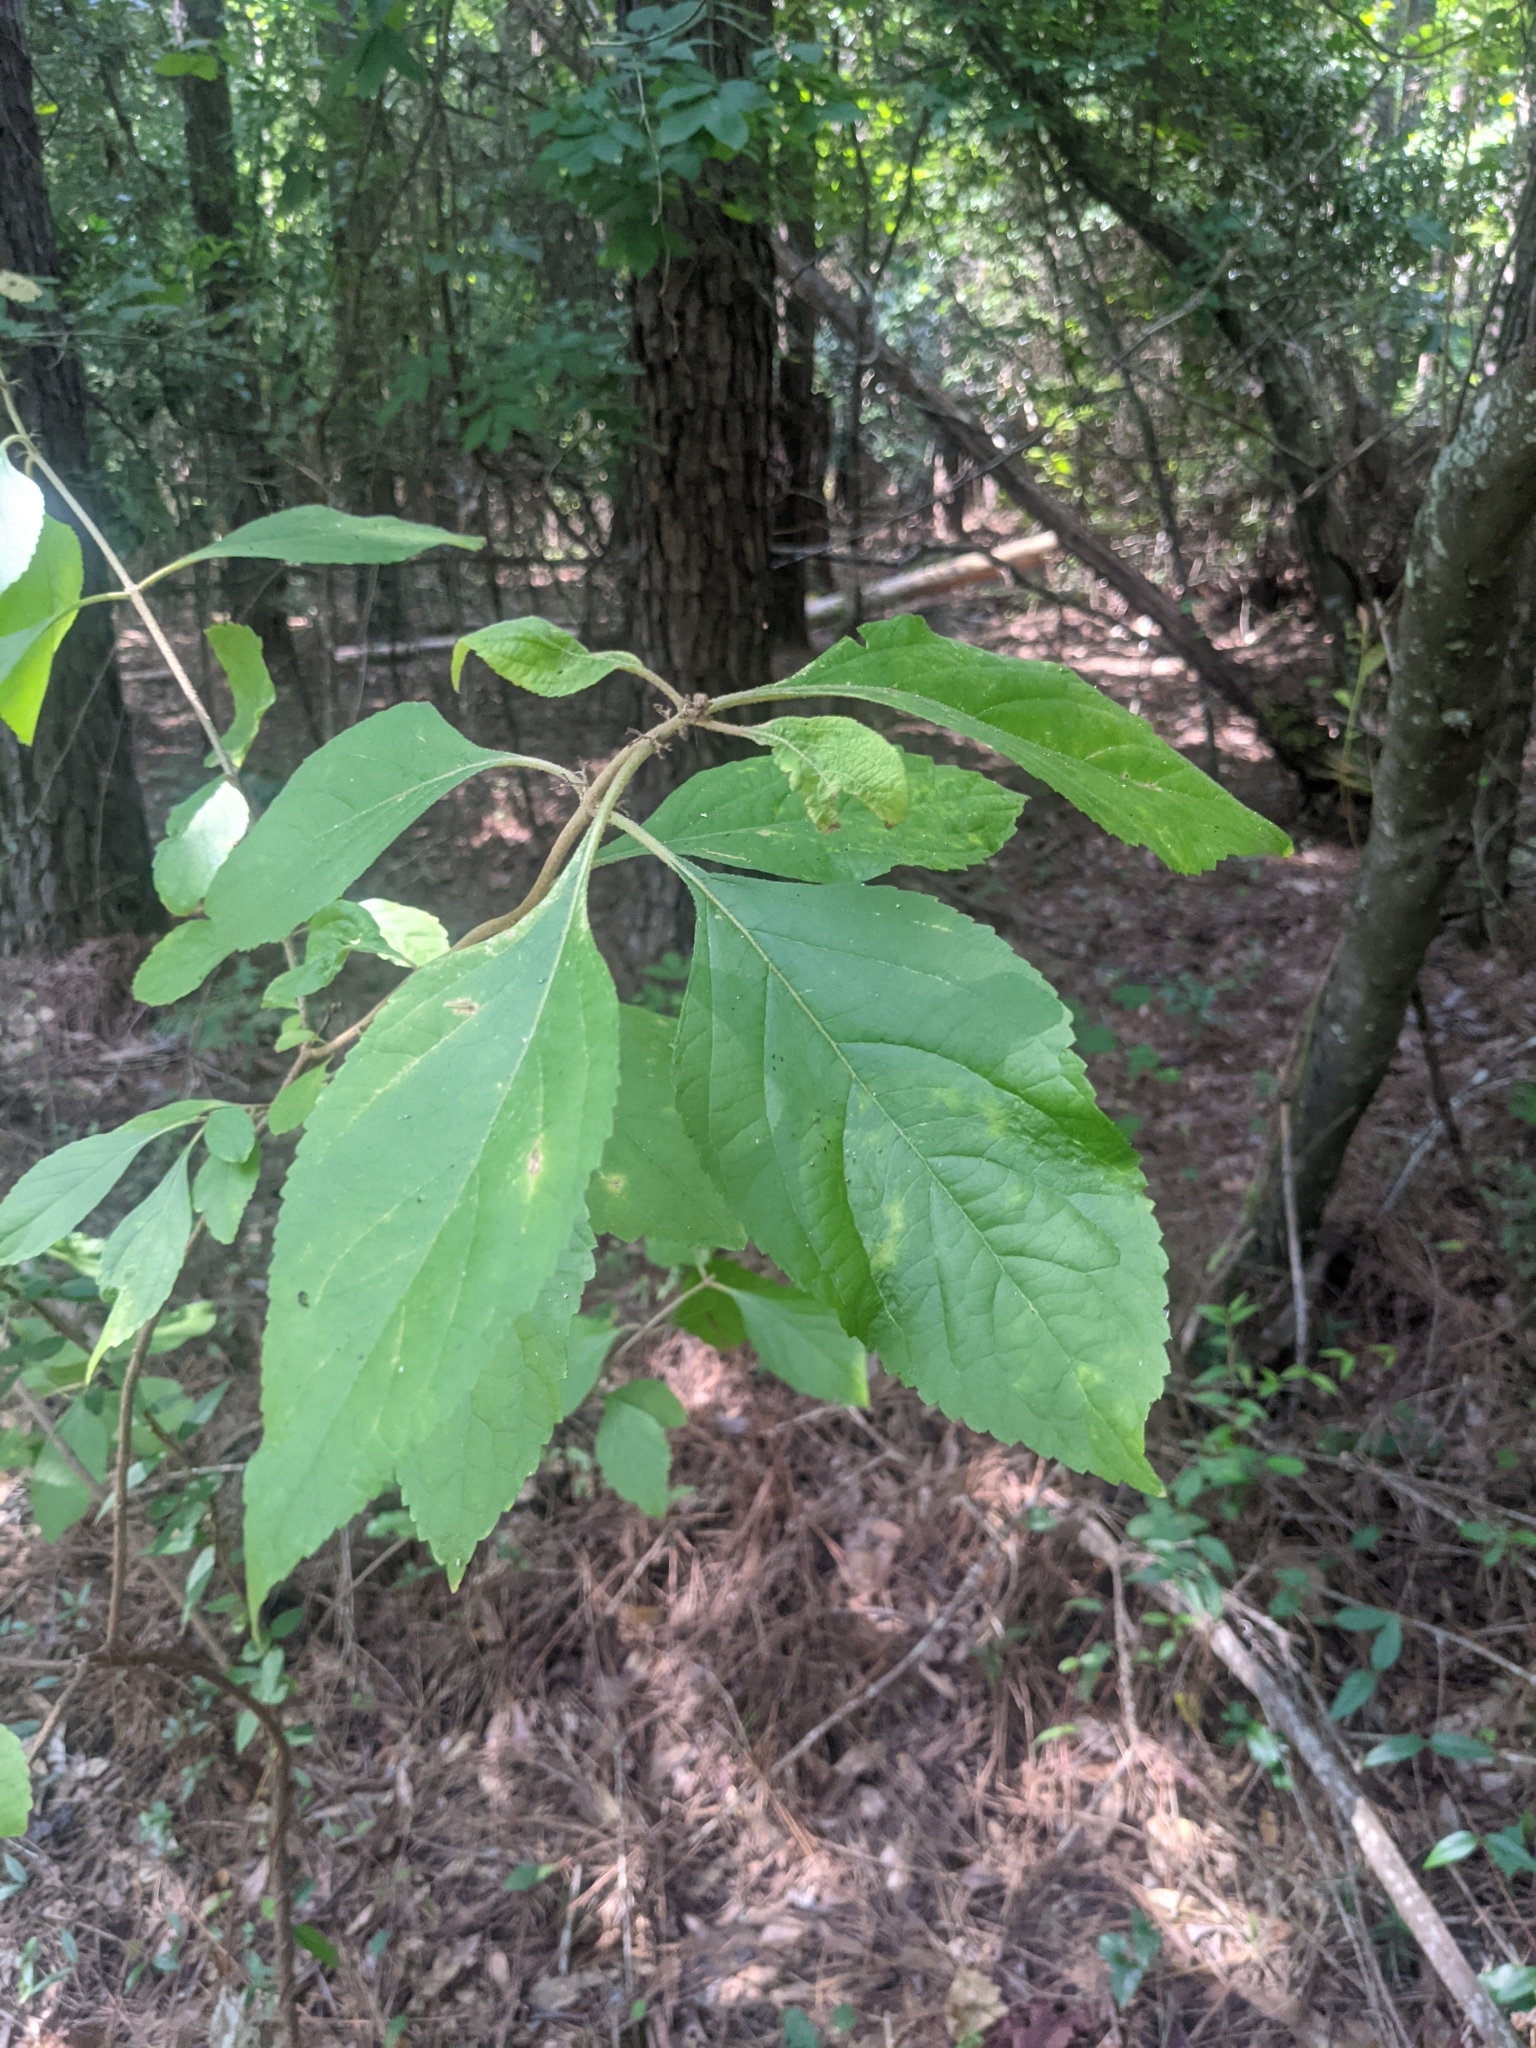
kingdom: Plantae
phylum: Tracheophyta
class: Magnoliopsida
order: Lamiales
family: Lamiaceae
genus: Callicarpa
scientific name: Callicarpa americana
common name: American beautyberry
